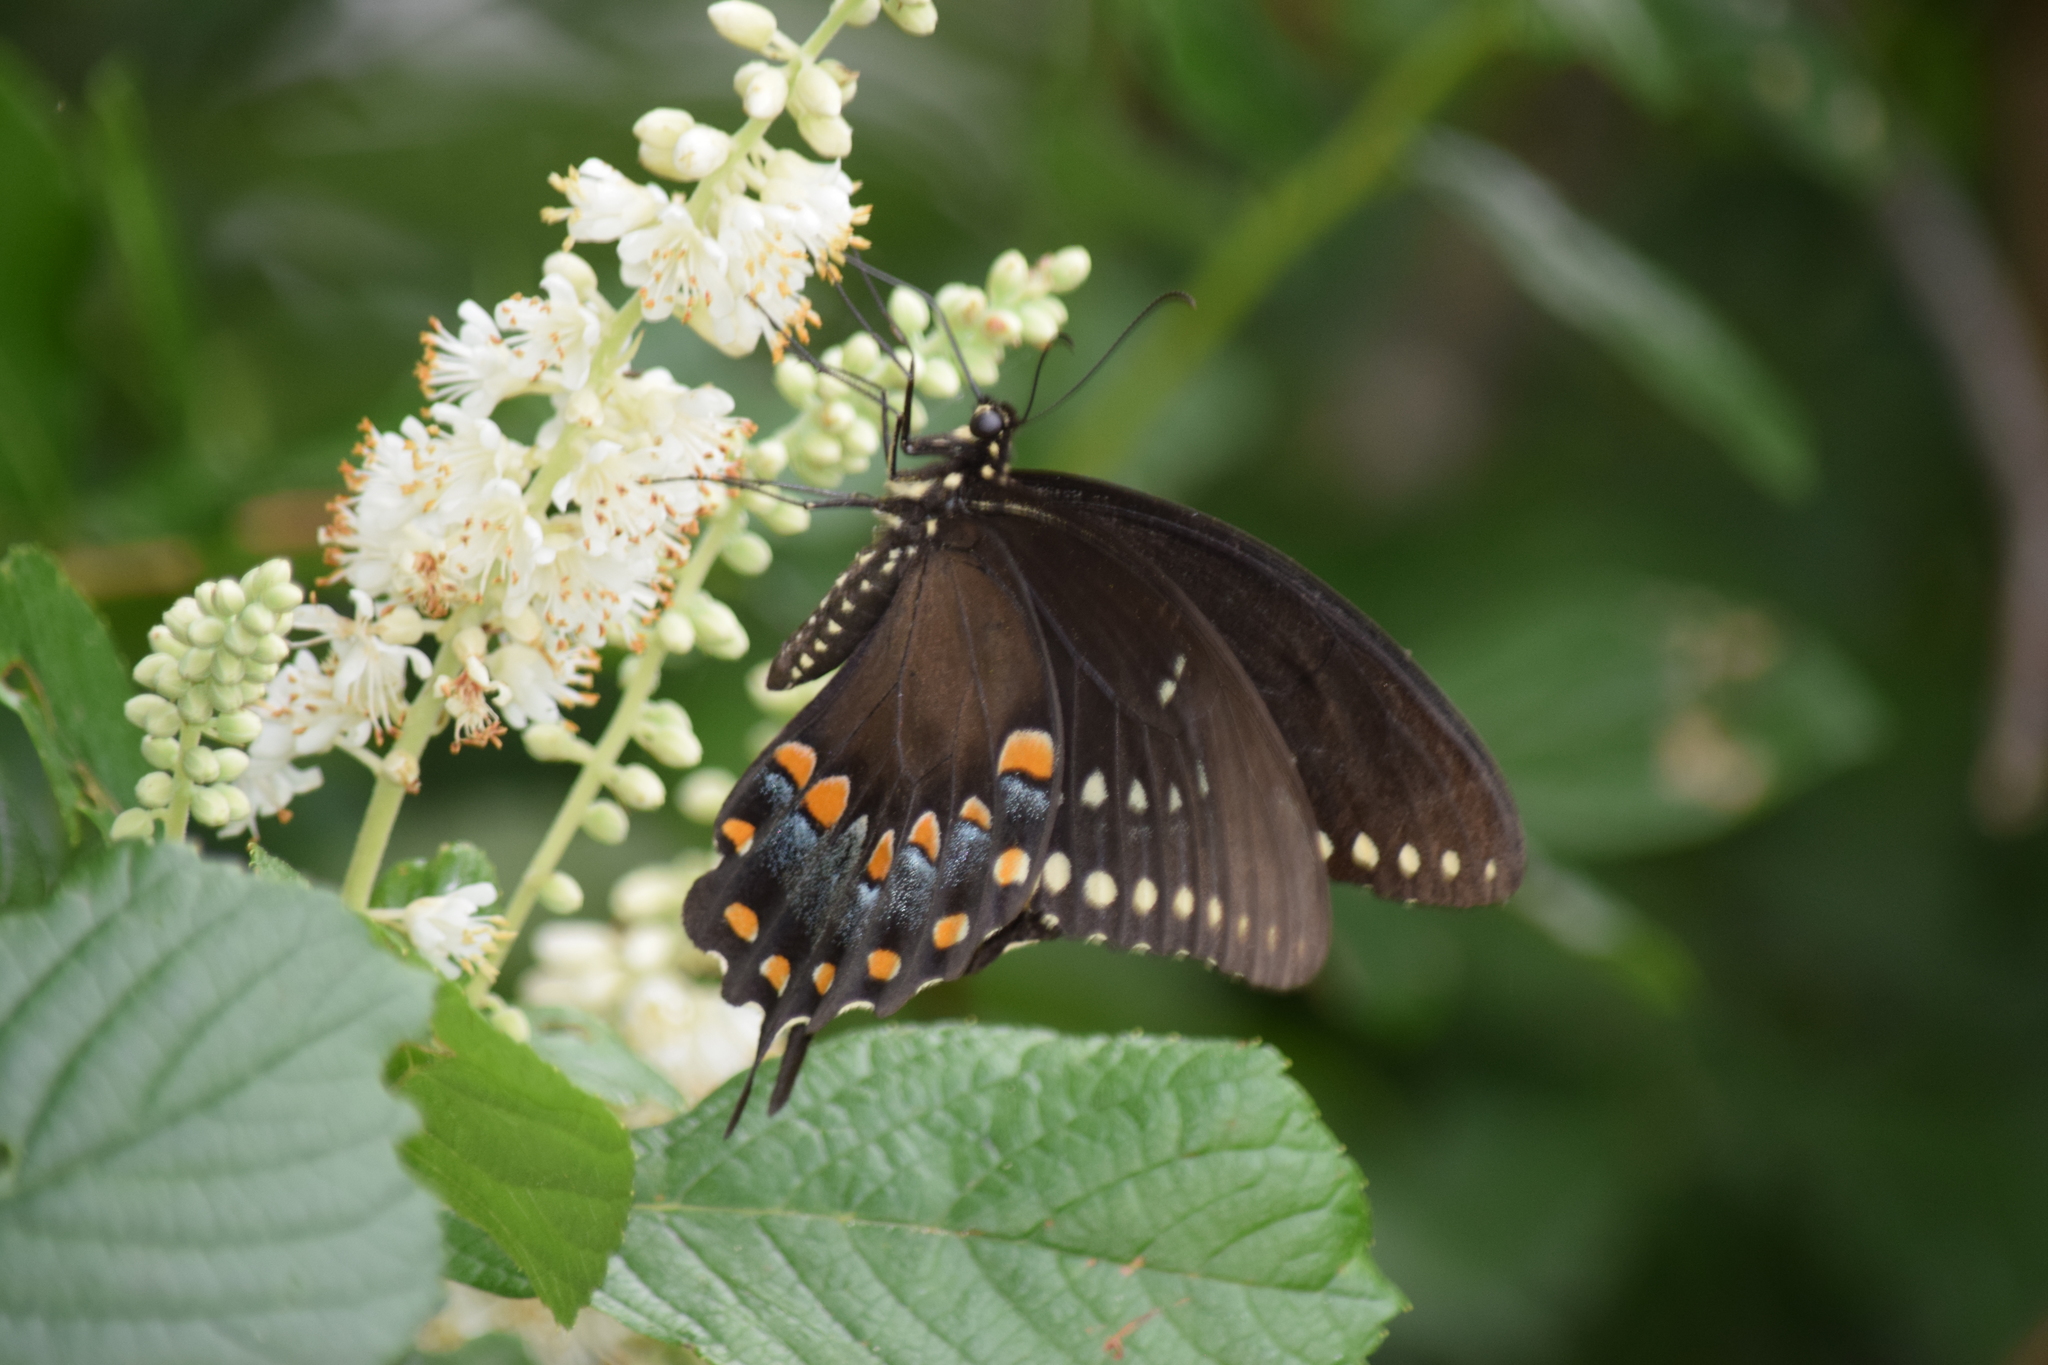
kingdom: Animalia
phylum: Arthropoda
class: Insecta
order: Lepidoptera
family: Papilionidae
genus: Papilio
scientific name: Papilio troilus
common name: Spicebush swallowtail
